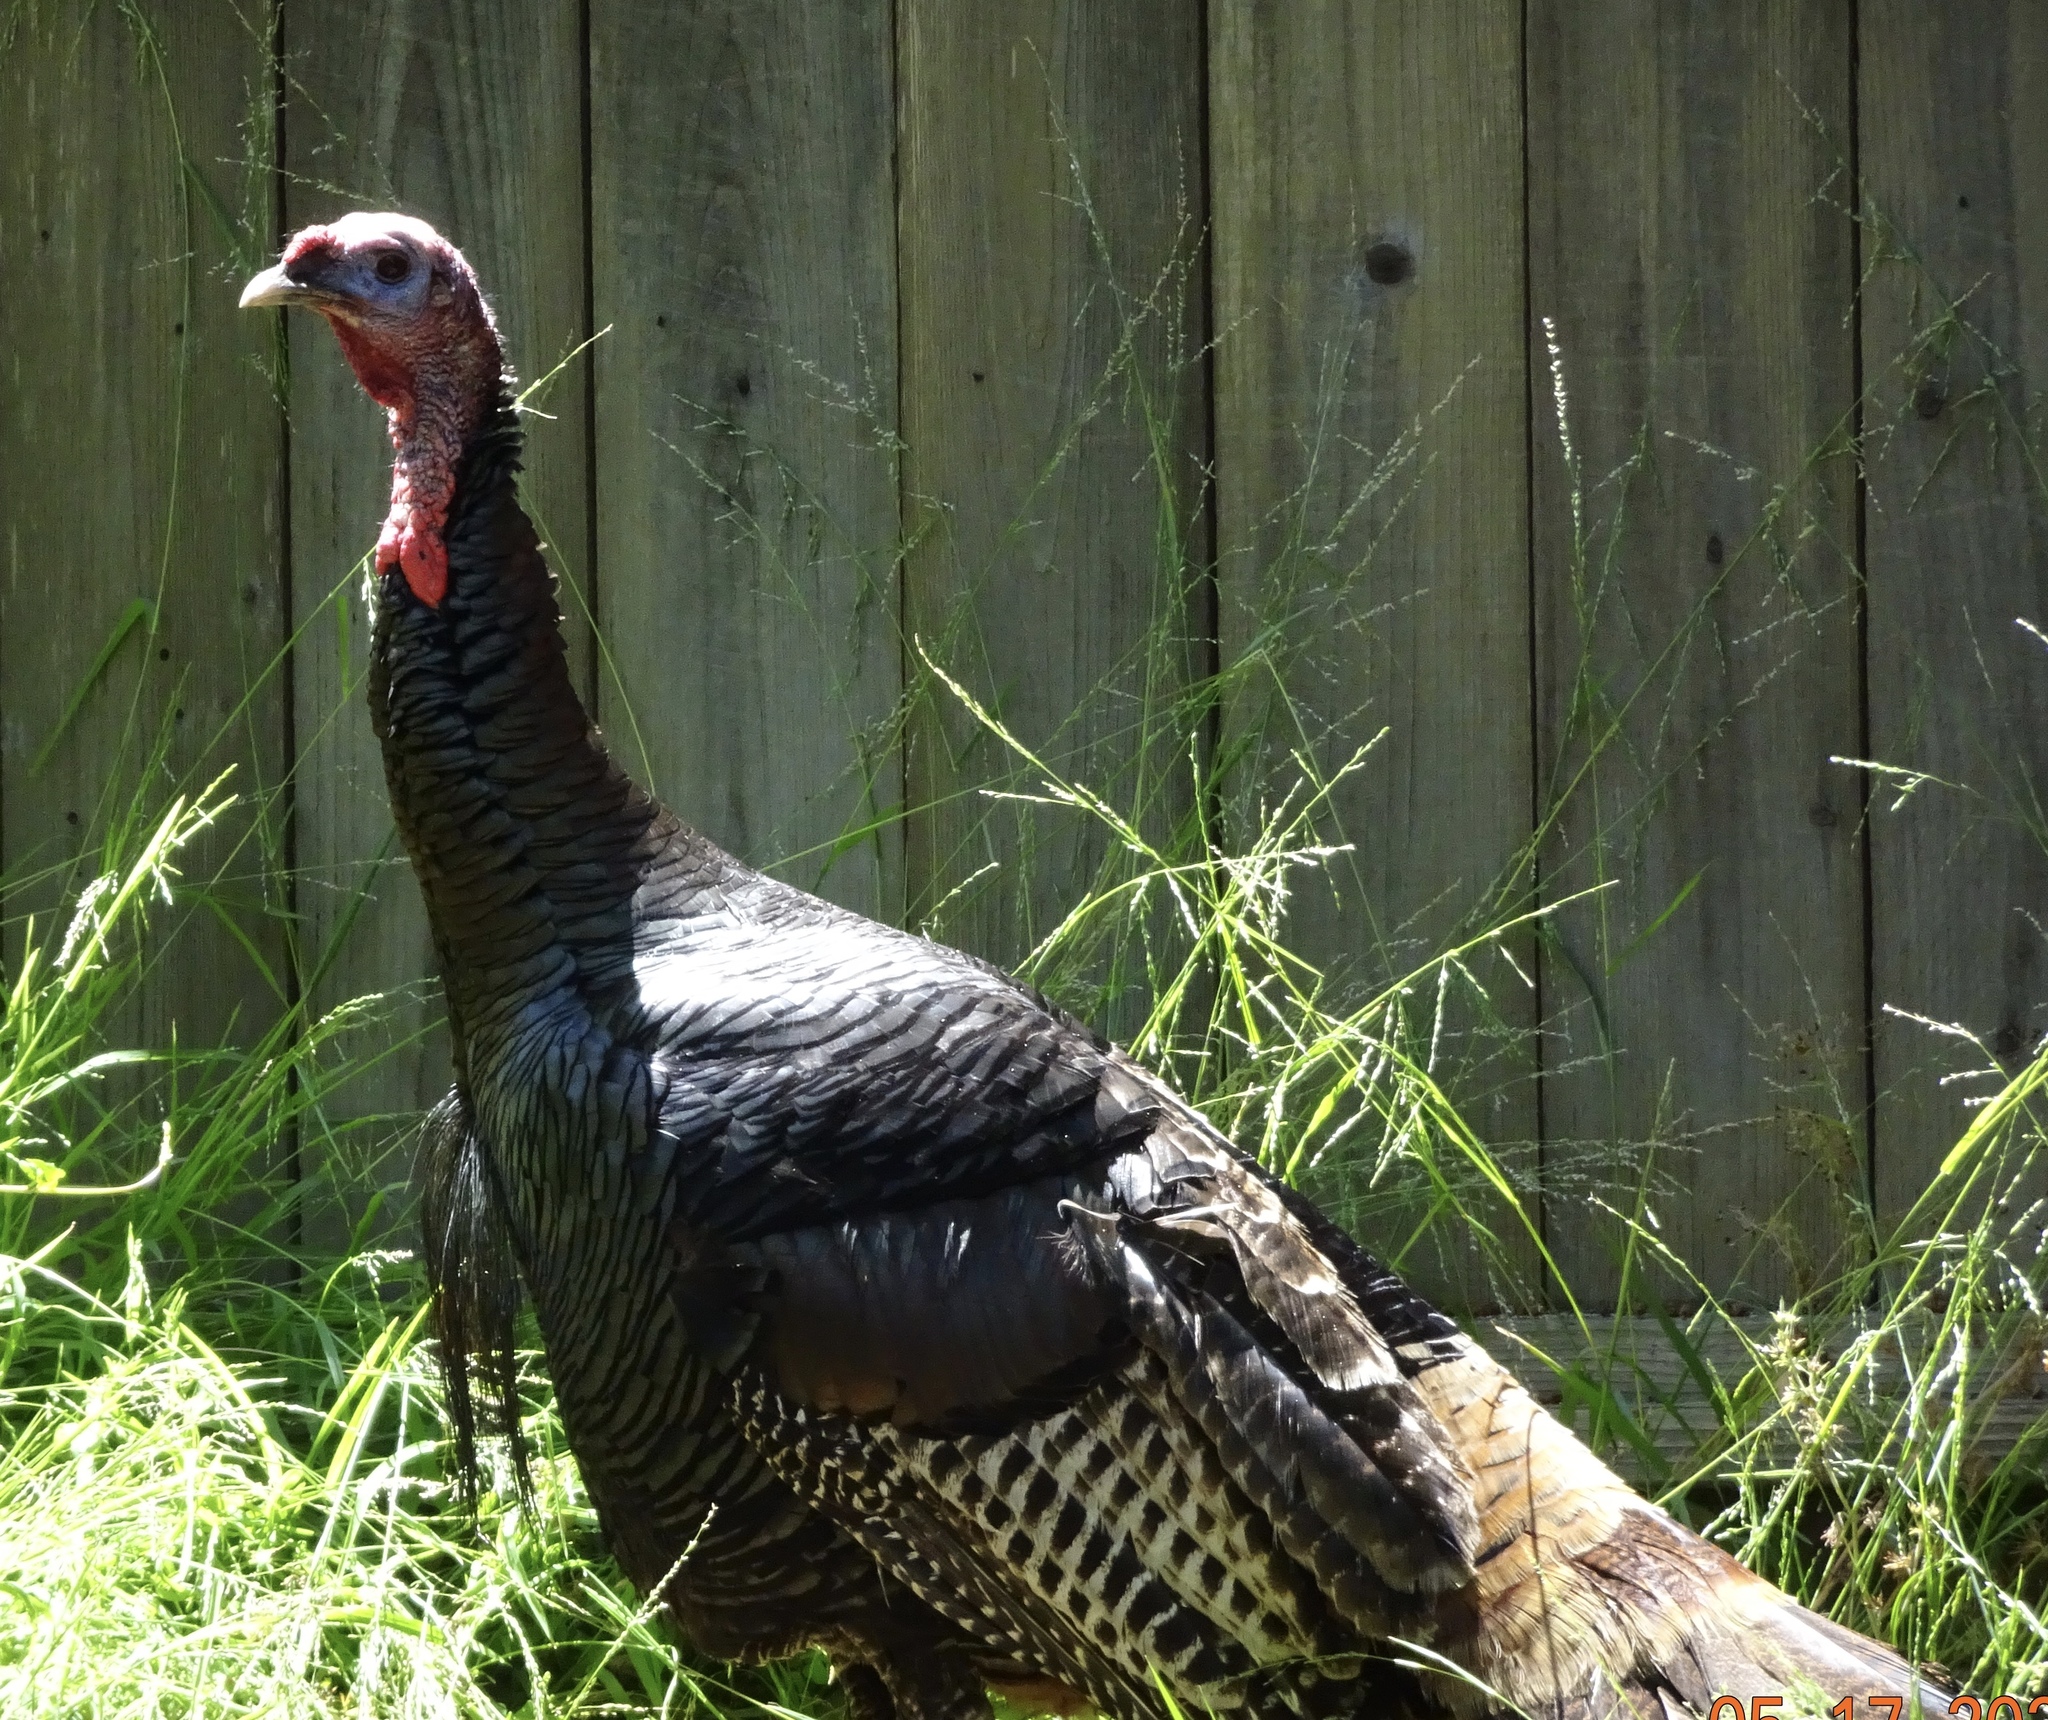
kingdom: Animalia
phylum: Chordata
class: Aves
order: Galliformes
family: Phasianidae
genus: Meleagris
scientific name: Meleagris gallopavo
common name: Wild turkey
